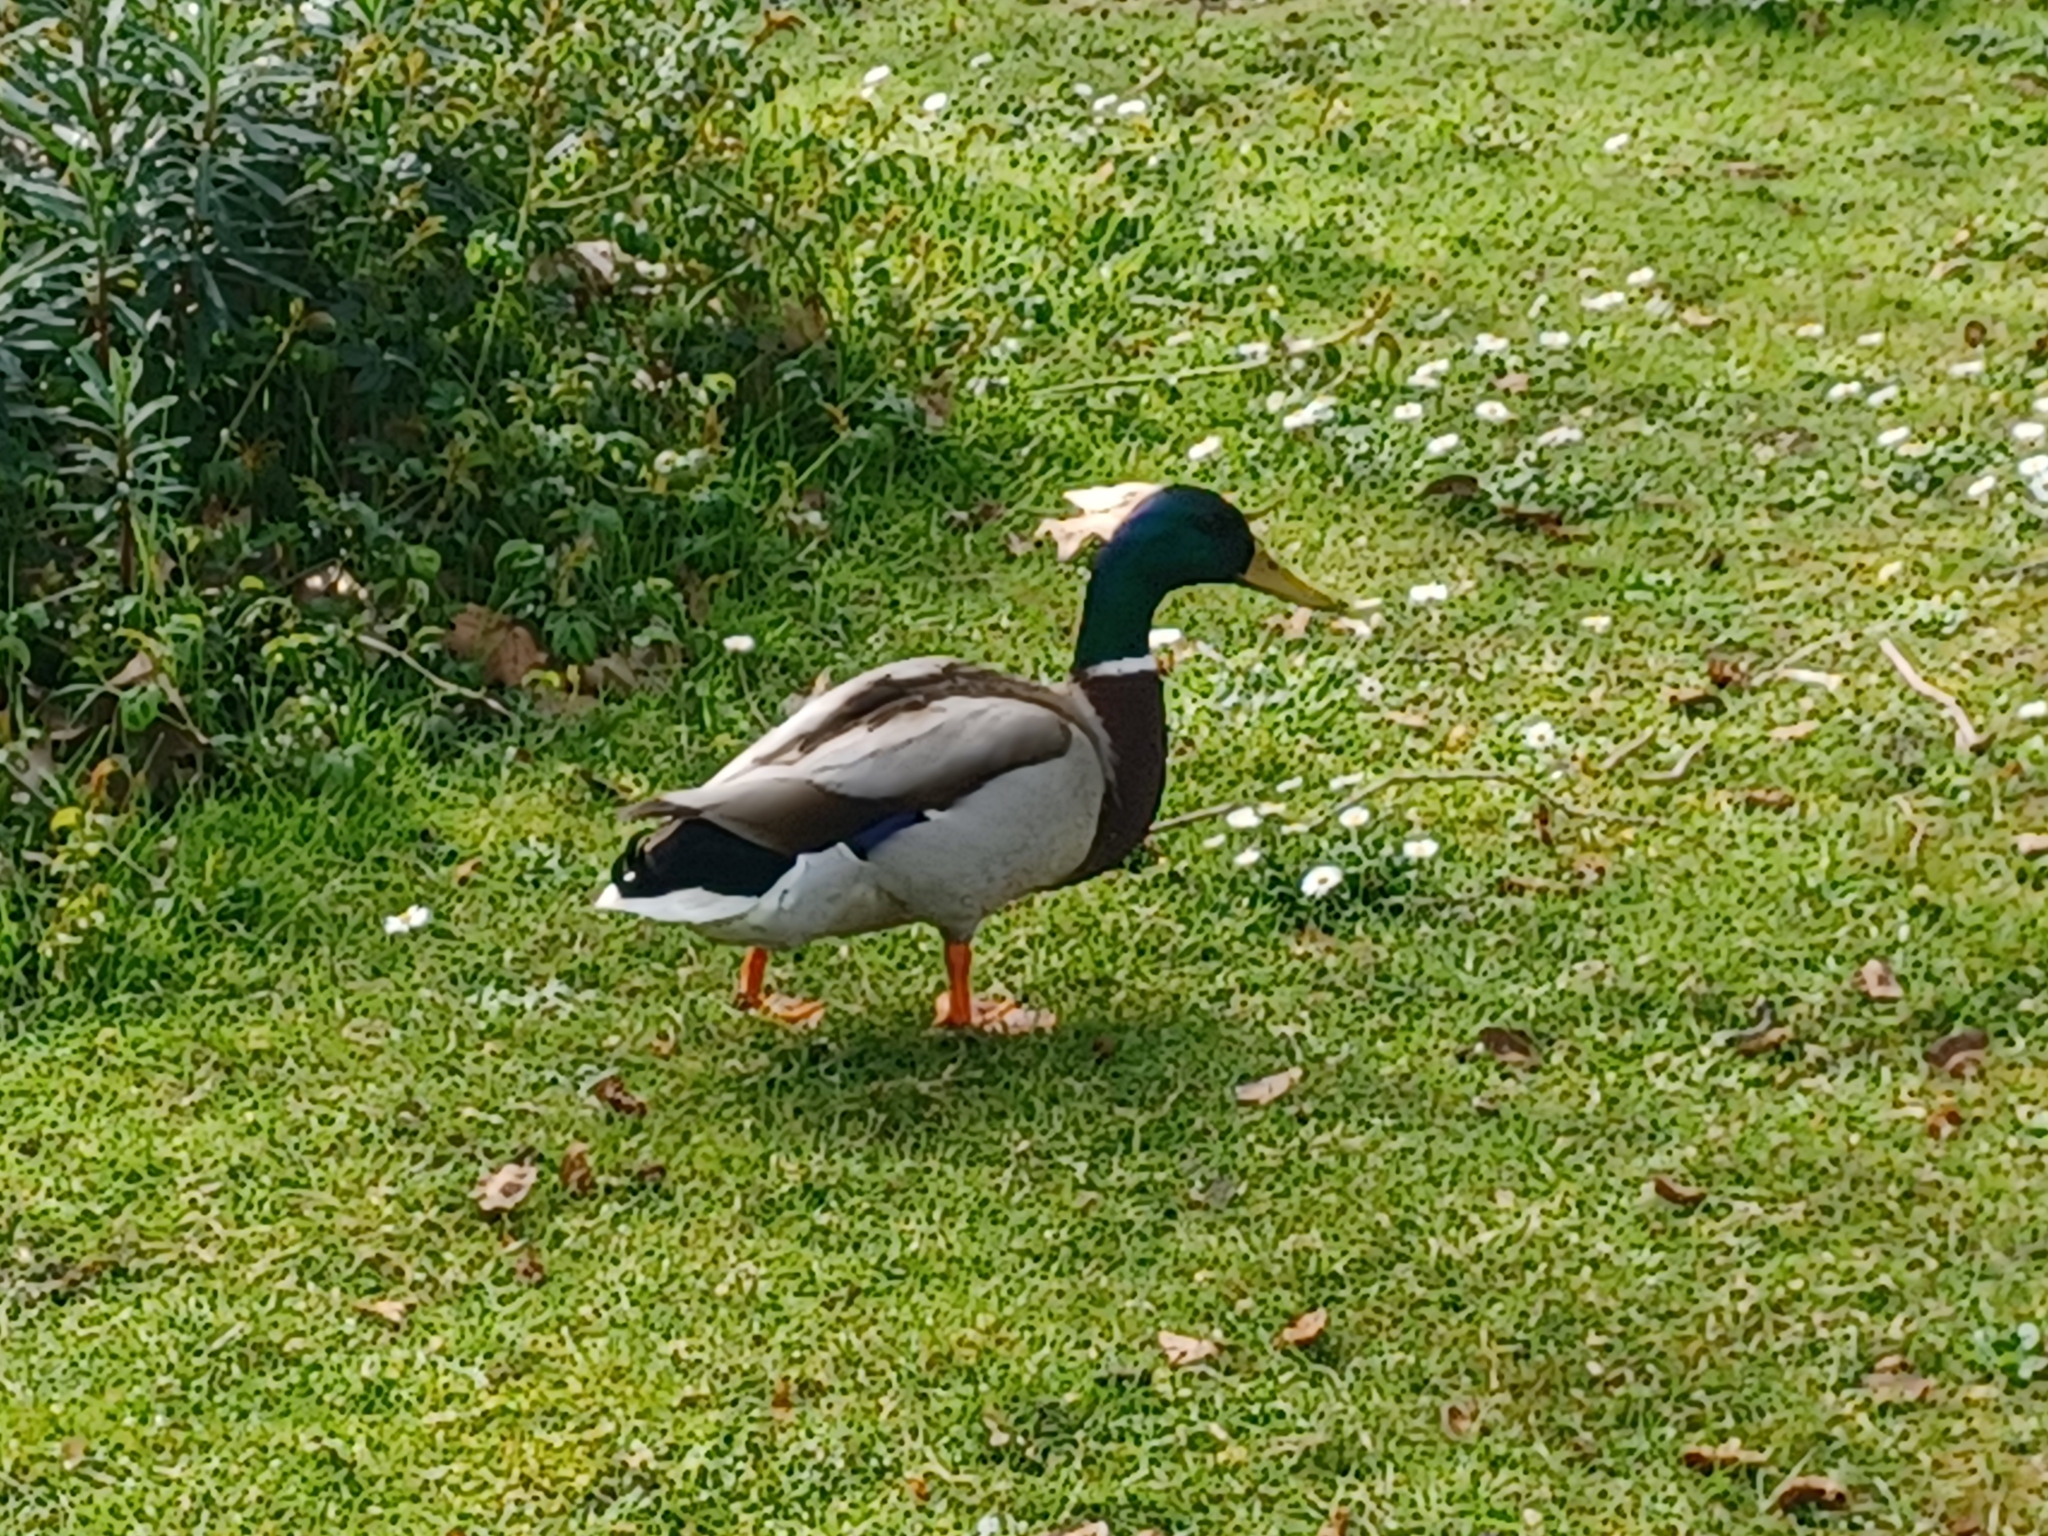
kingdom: Animalia
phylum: Chordata
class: Aves
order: Anseriformes
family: Anatidae
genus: Anas
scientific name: Anas platyrhynchos
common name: Mallard
